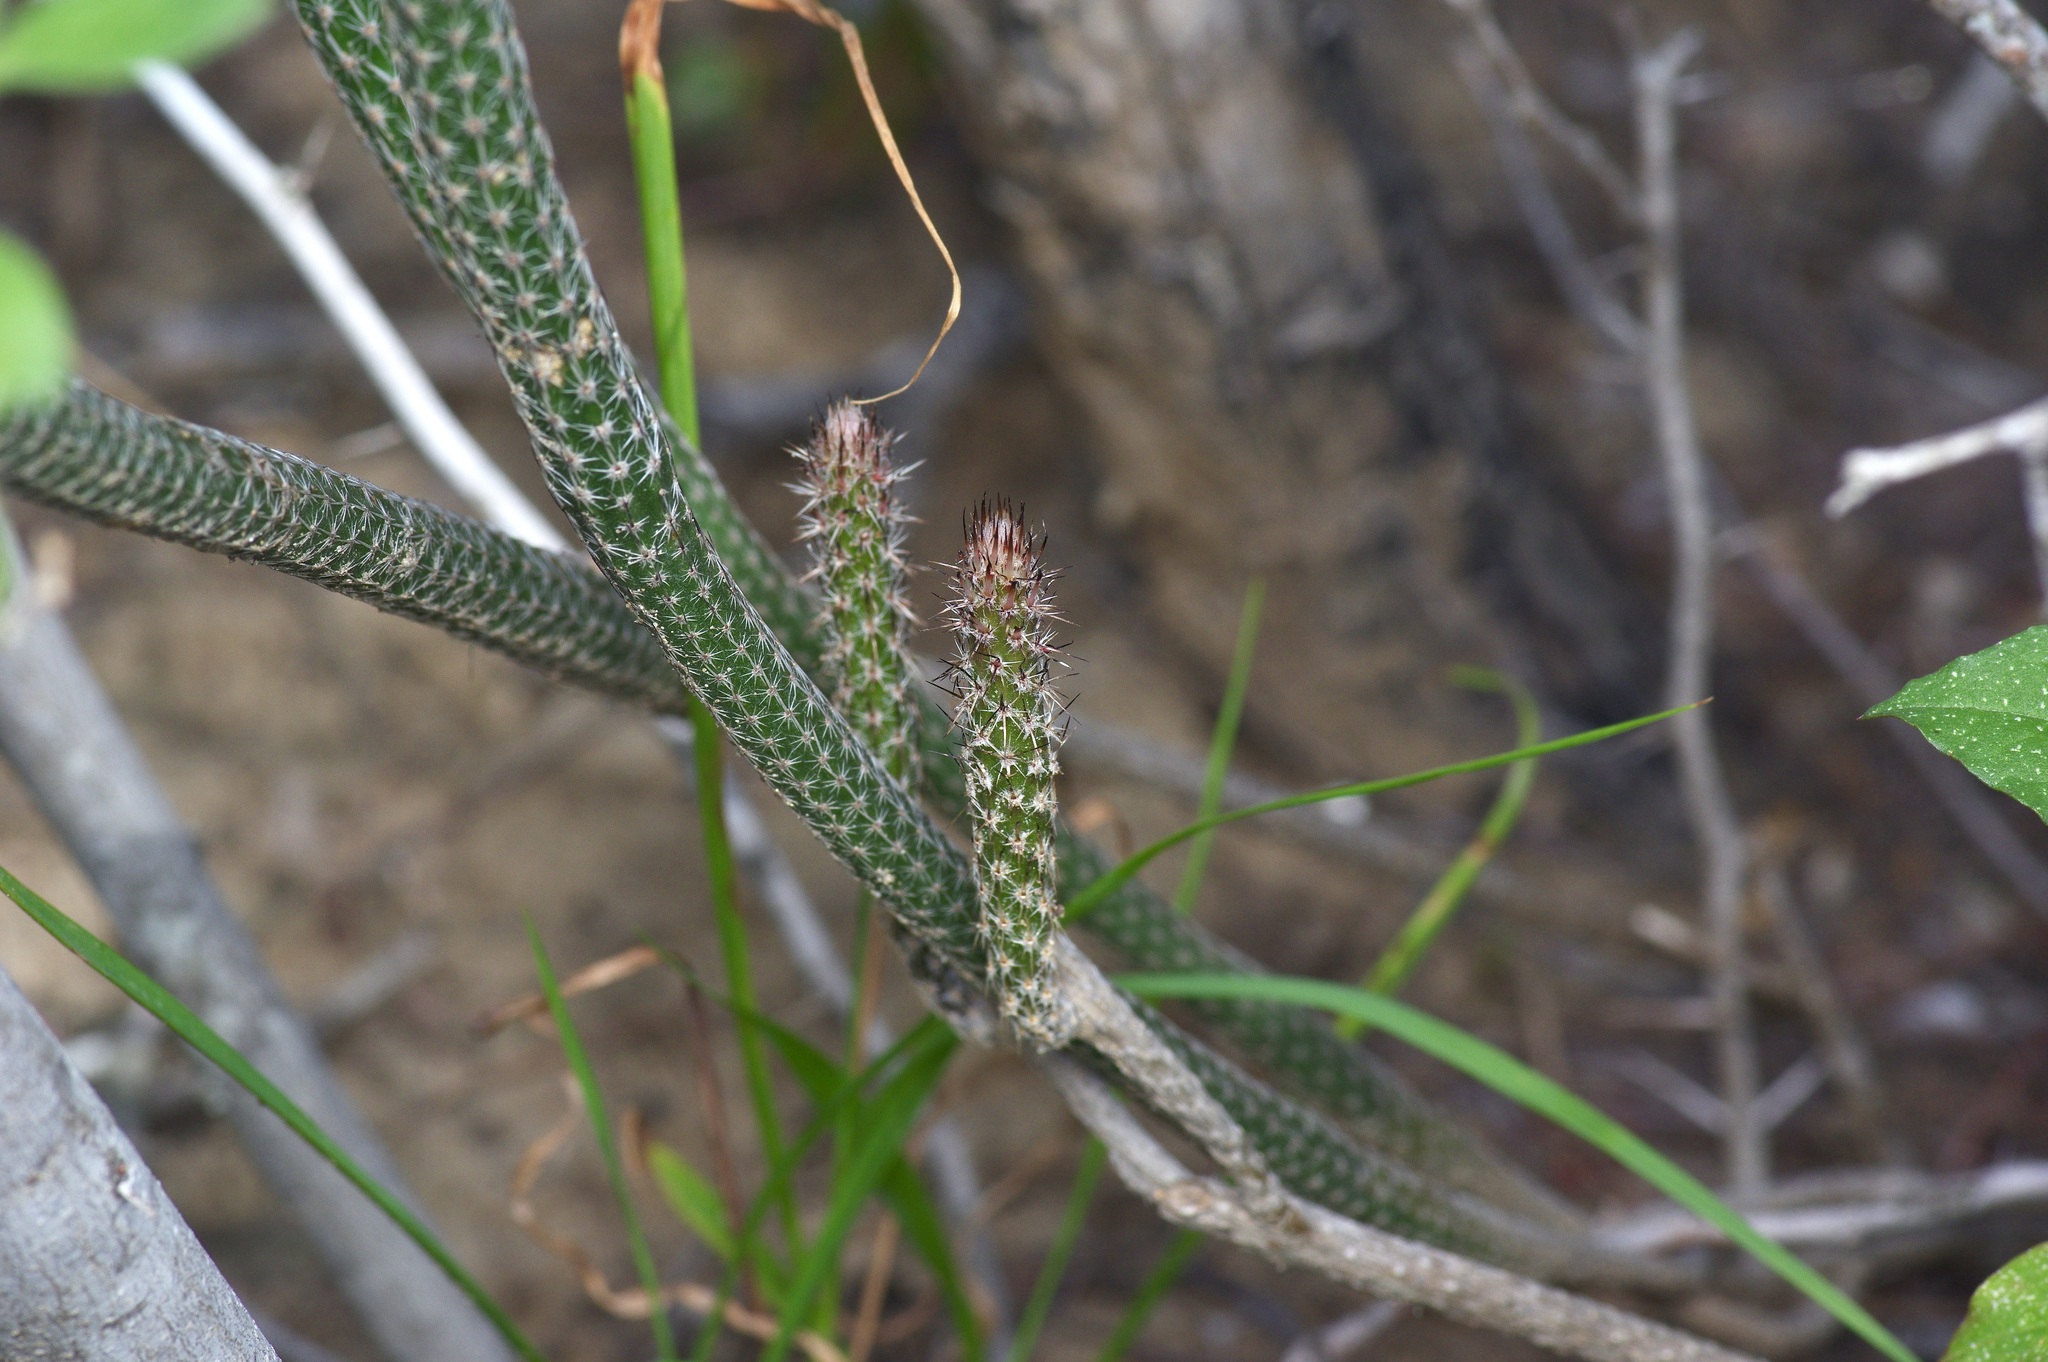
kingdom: Plantae
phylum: Tracheophyta
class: Magnoliopsida
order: Caryophyllales
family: Cactaceae
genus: Echinocereus
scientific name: Echinocereus poselgeri
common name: Dahlia apple cactus
